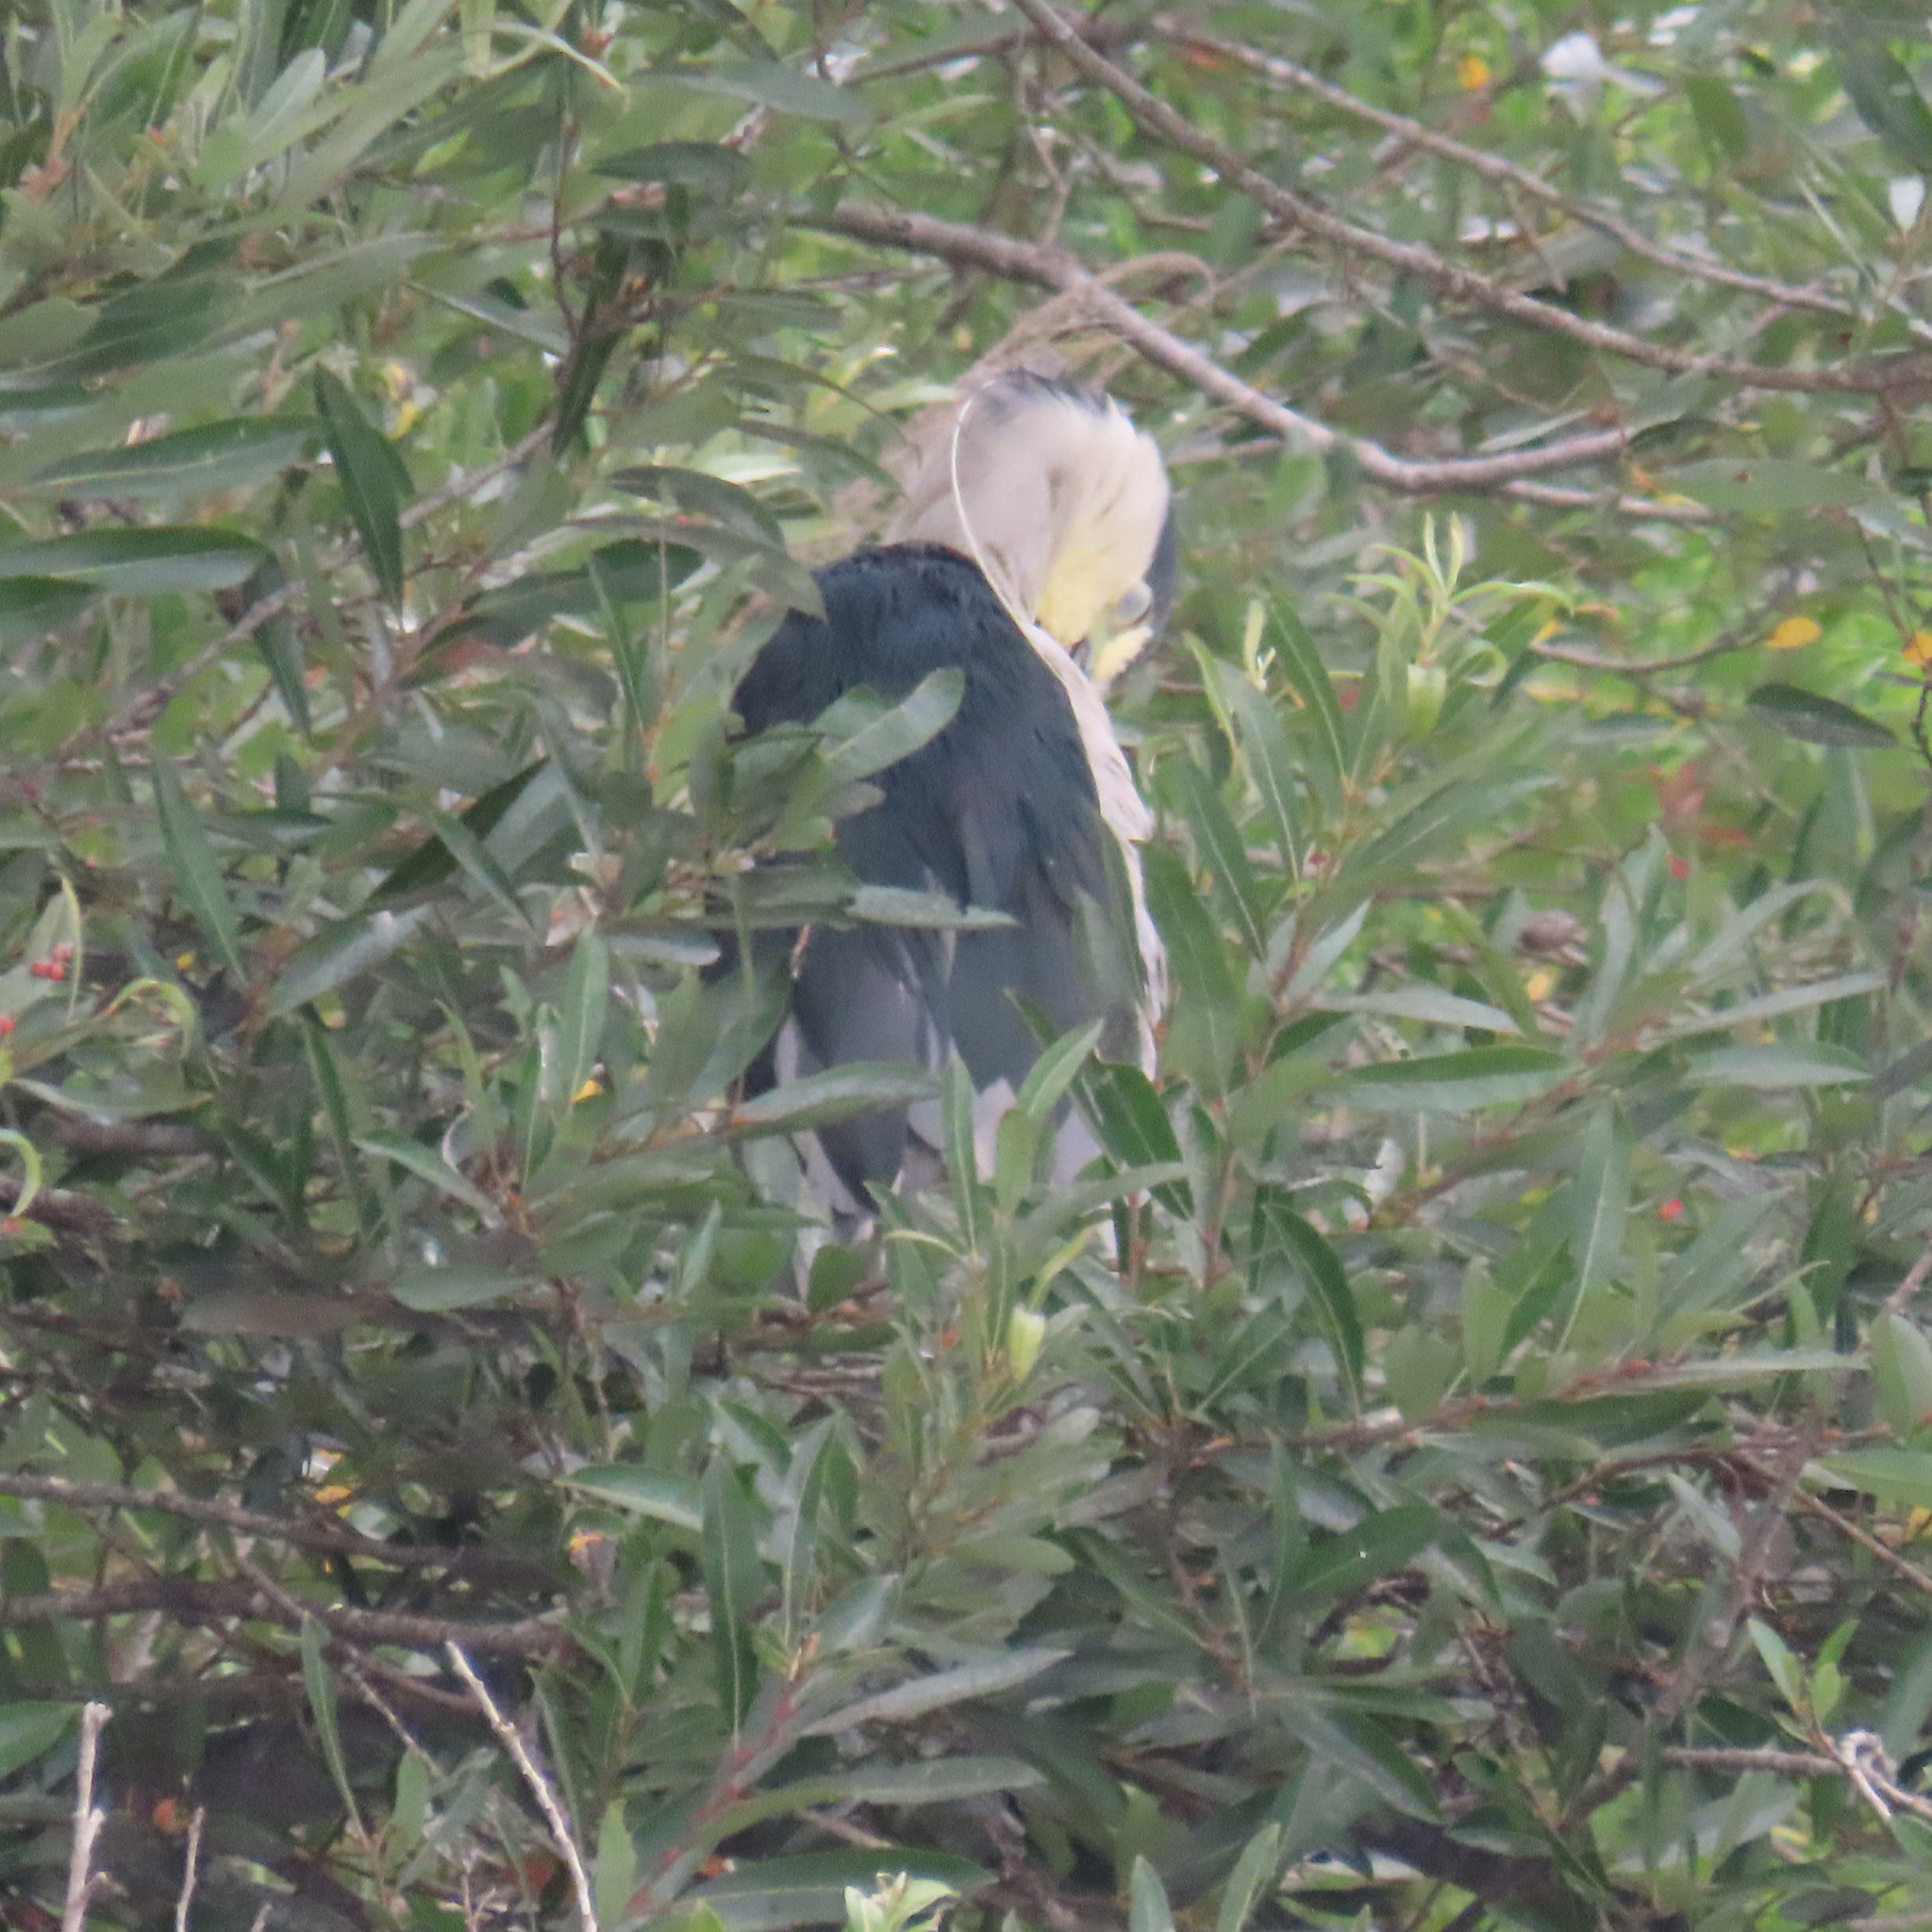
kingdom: Animalia
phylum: Chordata
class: Aves
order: Pelecaniformes
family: Ardeidae
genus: Nycticorax
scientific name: Nycticorax nycticorax
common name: Black-crowned night heron
